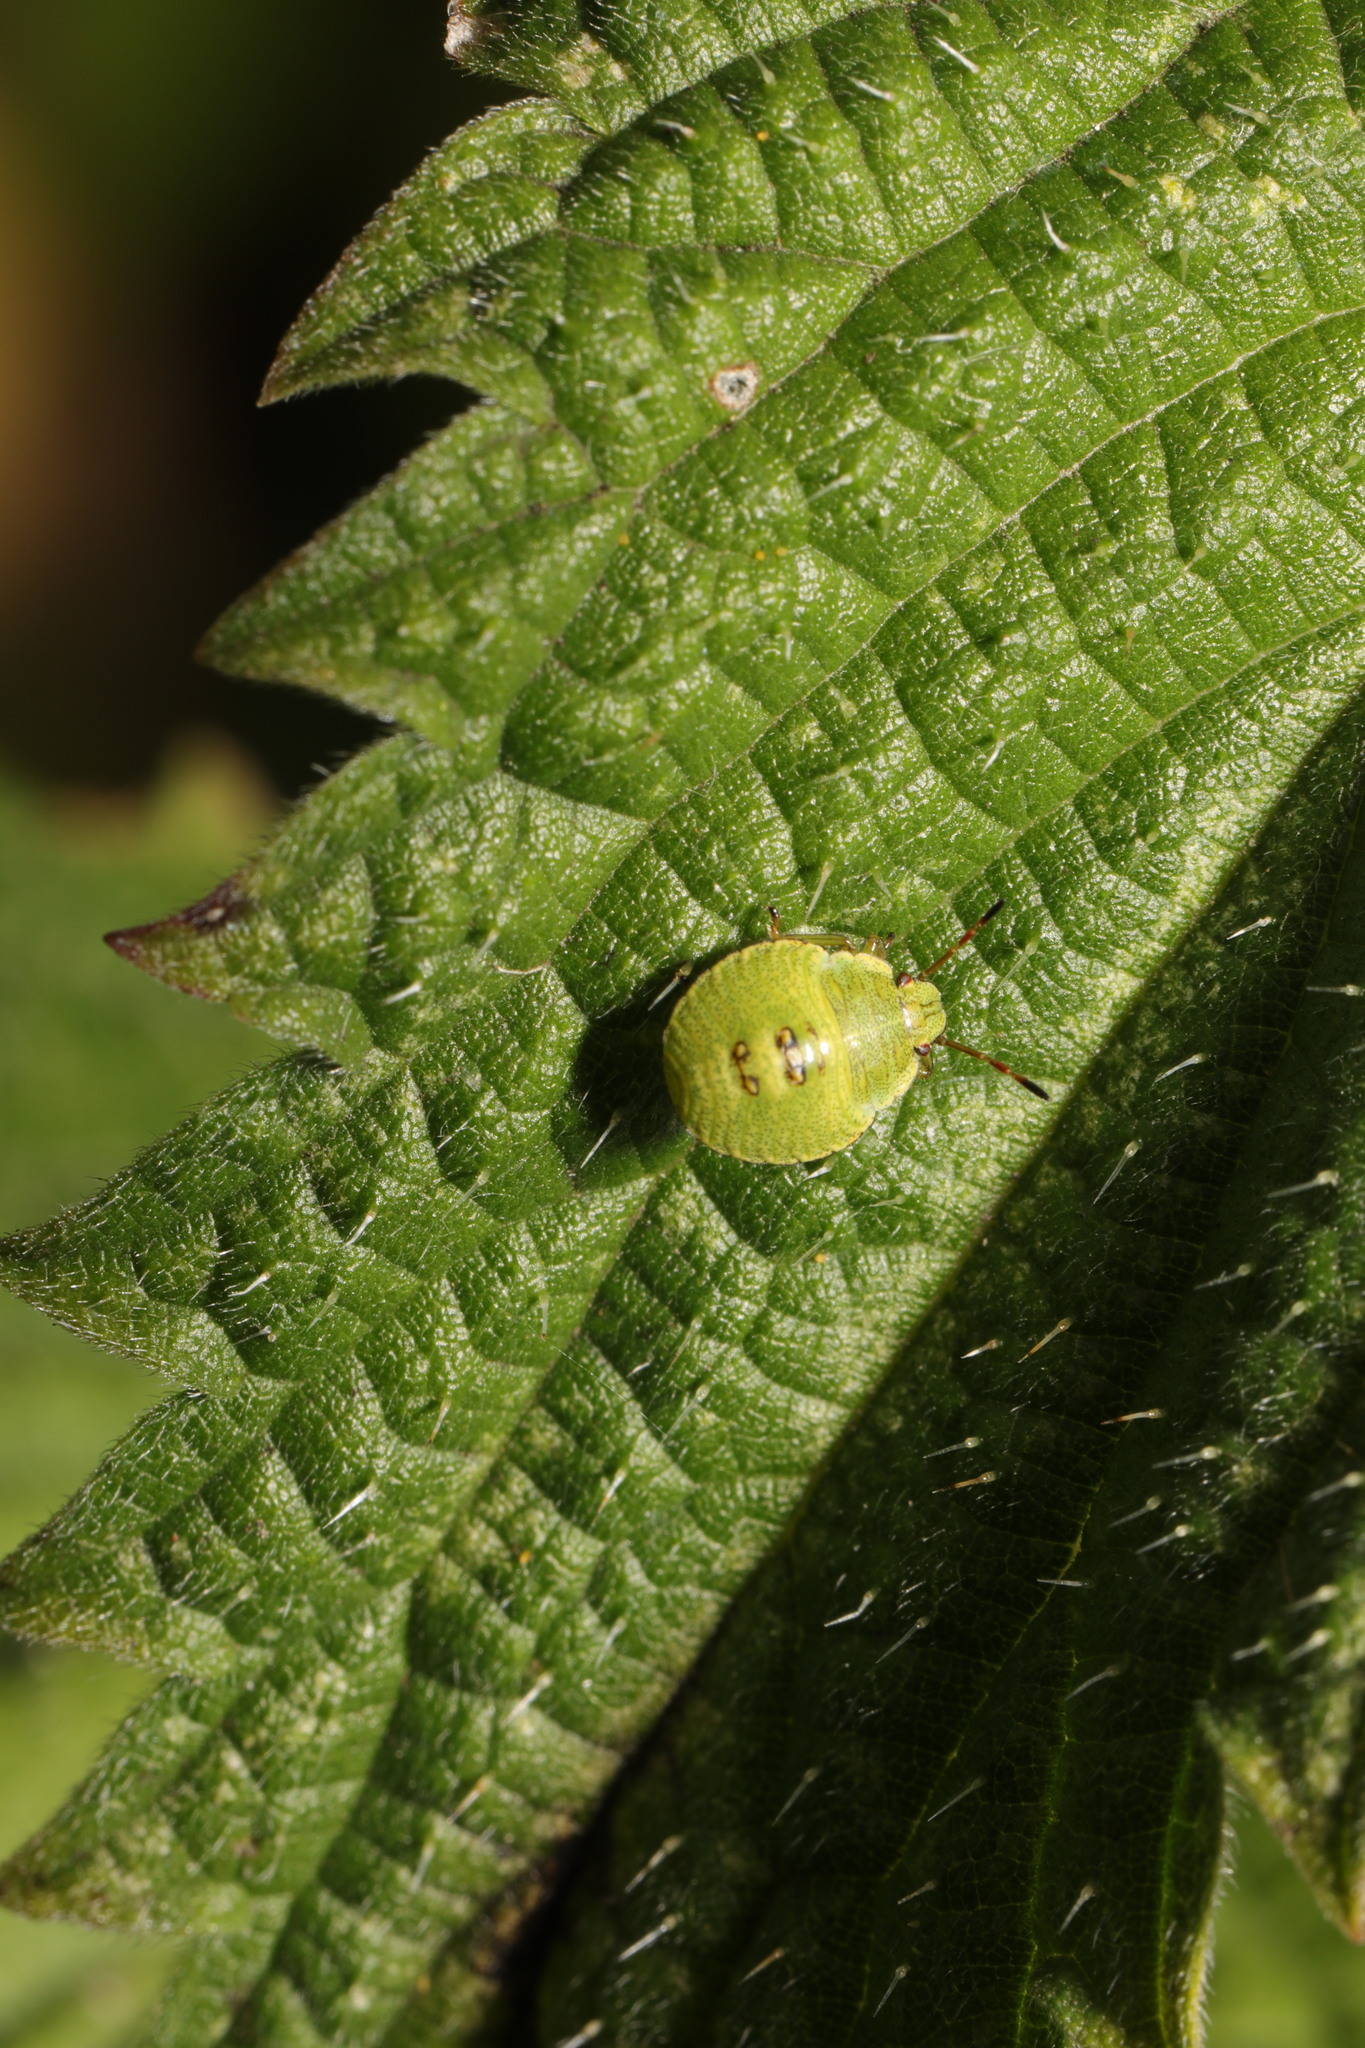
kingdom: Animalia
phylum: Arthropoda
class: Insecta
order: Hemiptera
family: Pentatomidae
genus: Palomena
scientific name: Palomena prasina
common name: Green shieldbug
